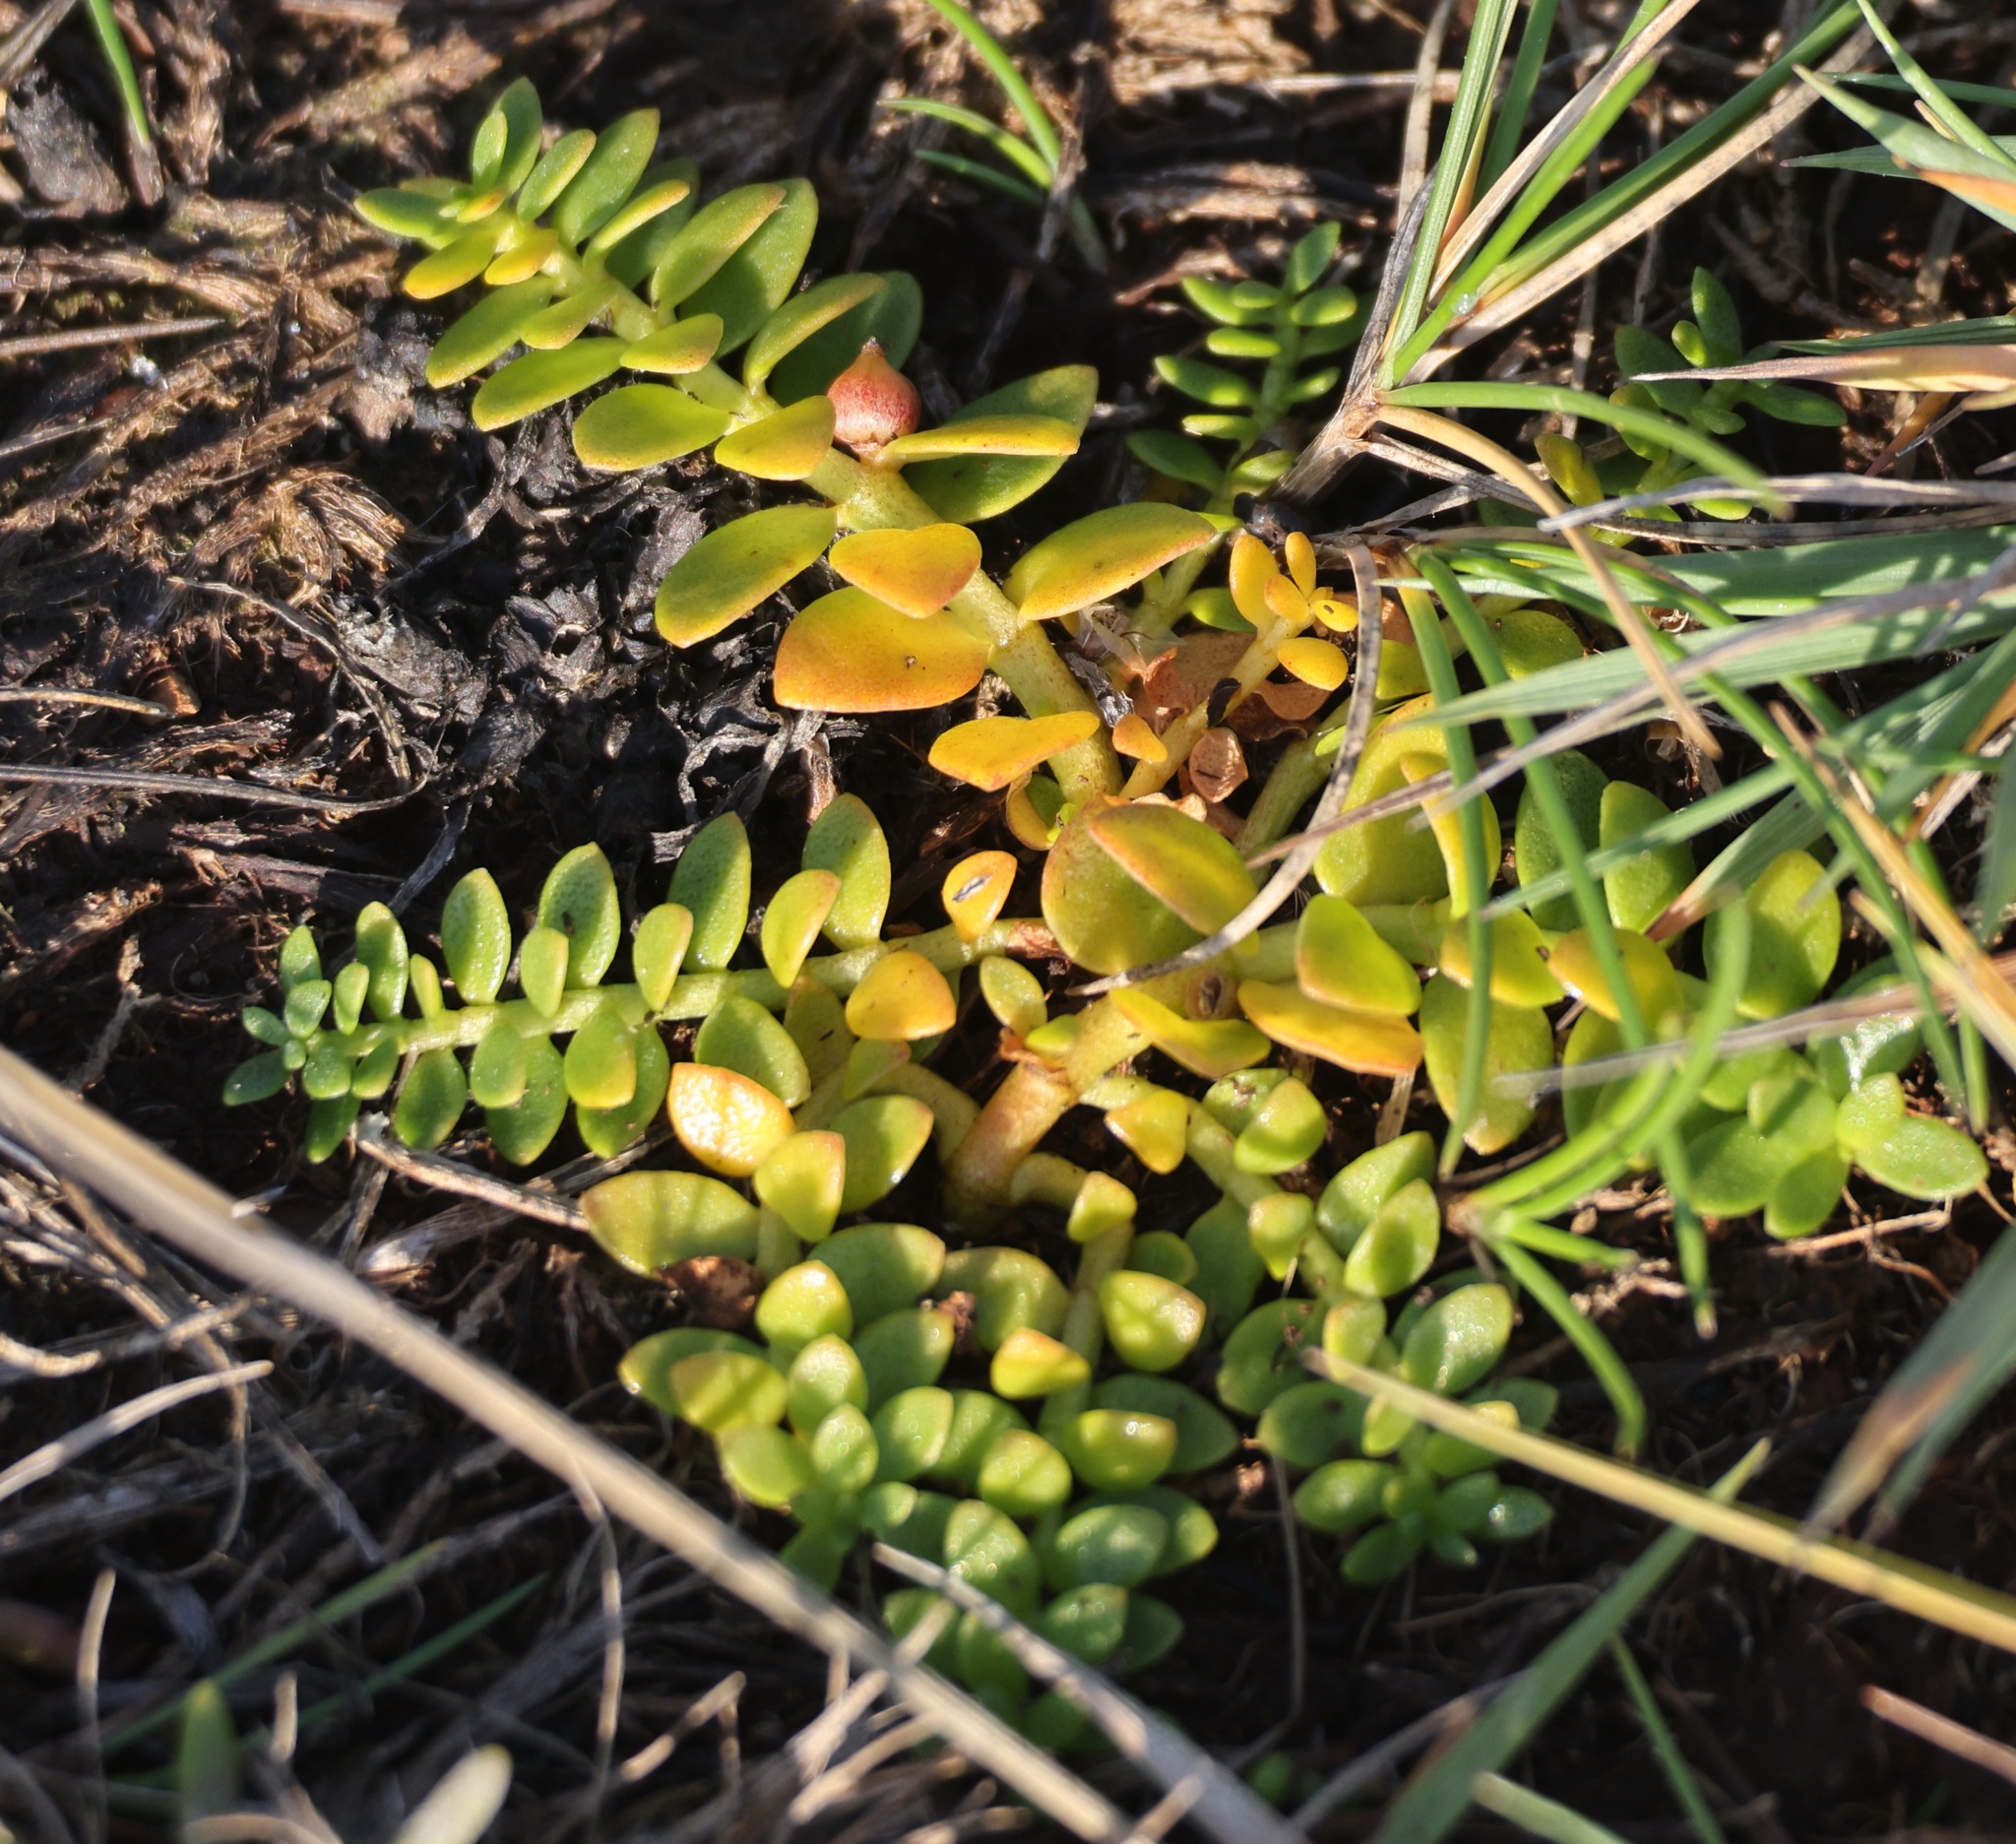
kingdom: Plantae
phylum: Tracheophyta
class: Magnoliopsida
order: Caryophyllales
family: Caryophyllaceae
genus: Honckenya
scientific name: Honckenya peploides
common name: Sea sandwort
